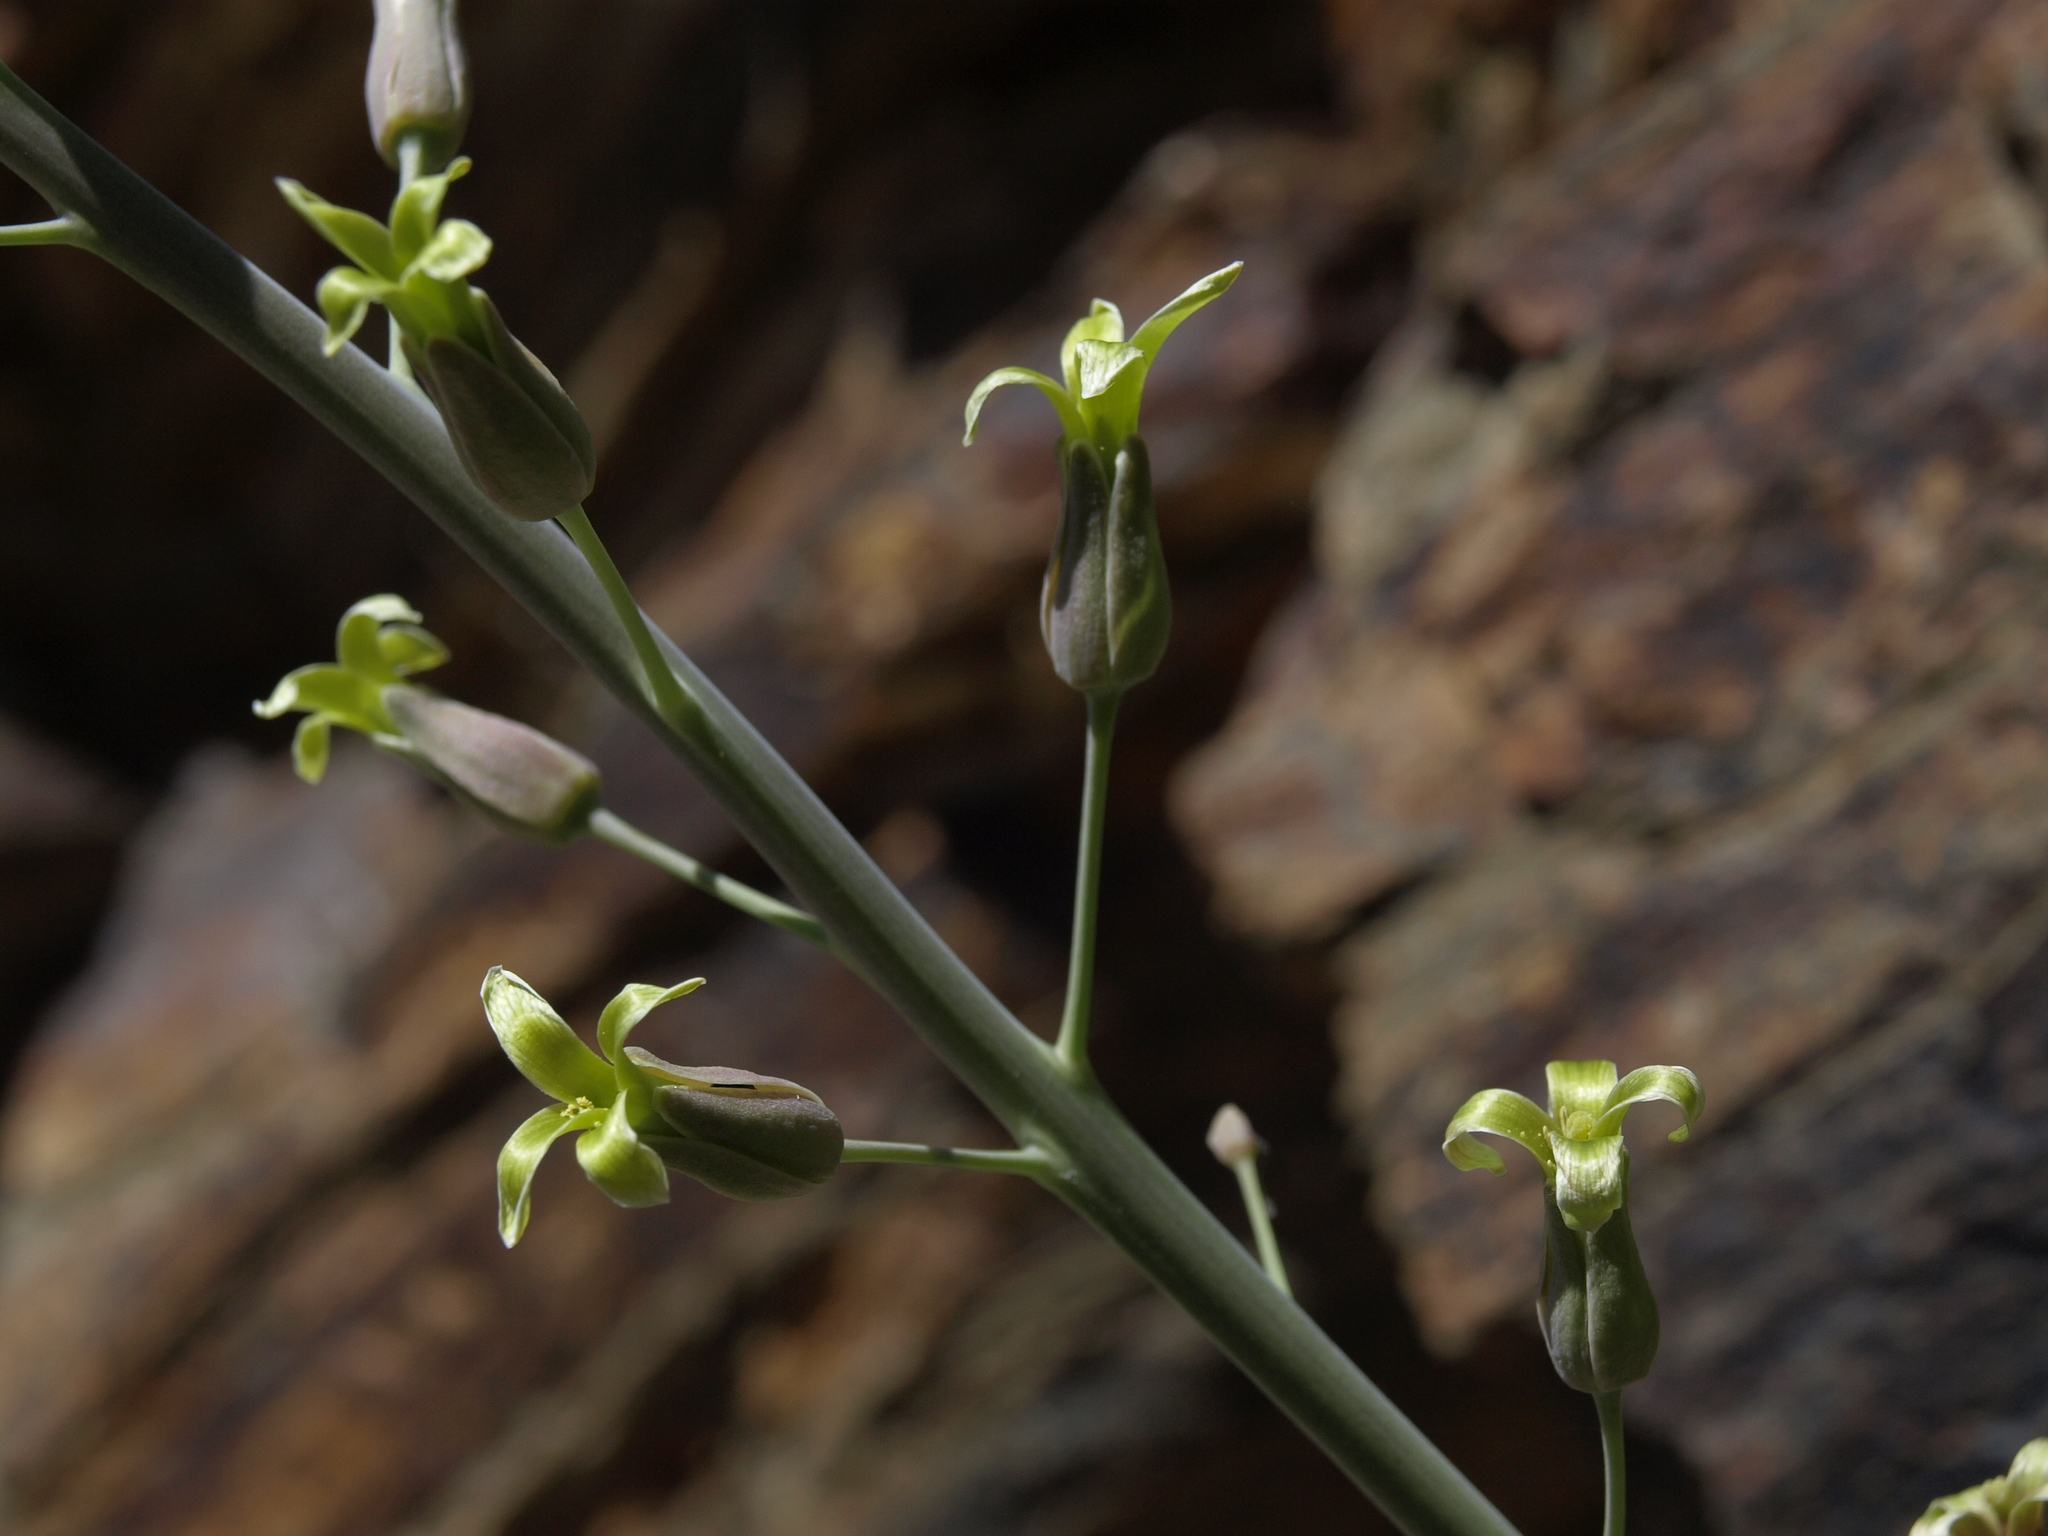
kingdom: Plantae
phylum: Tracheophyta
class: Magnoliopsida
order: Brassicales
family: Brassicaceae
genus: Streptanthus
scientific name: Streptanthus glaucus
